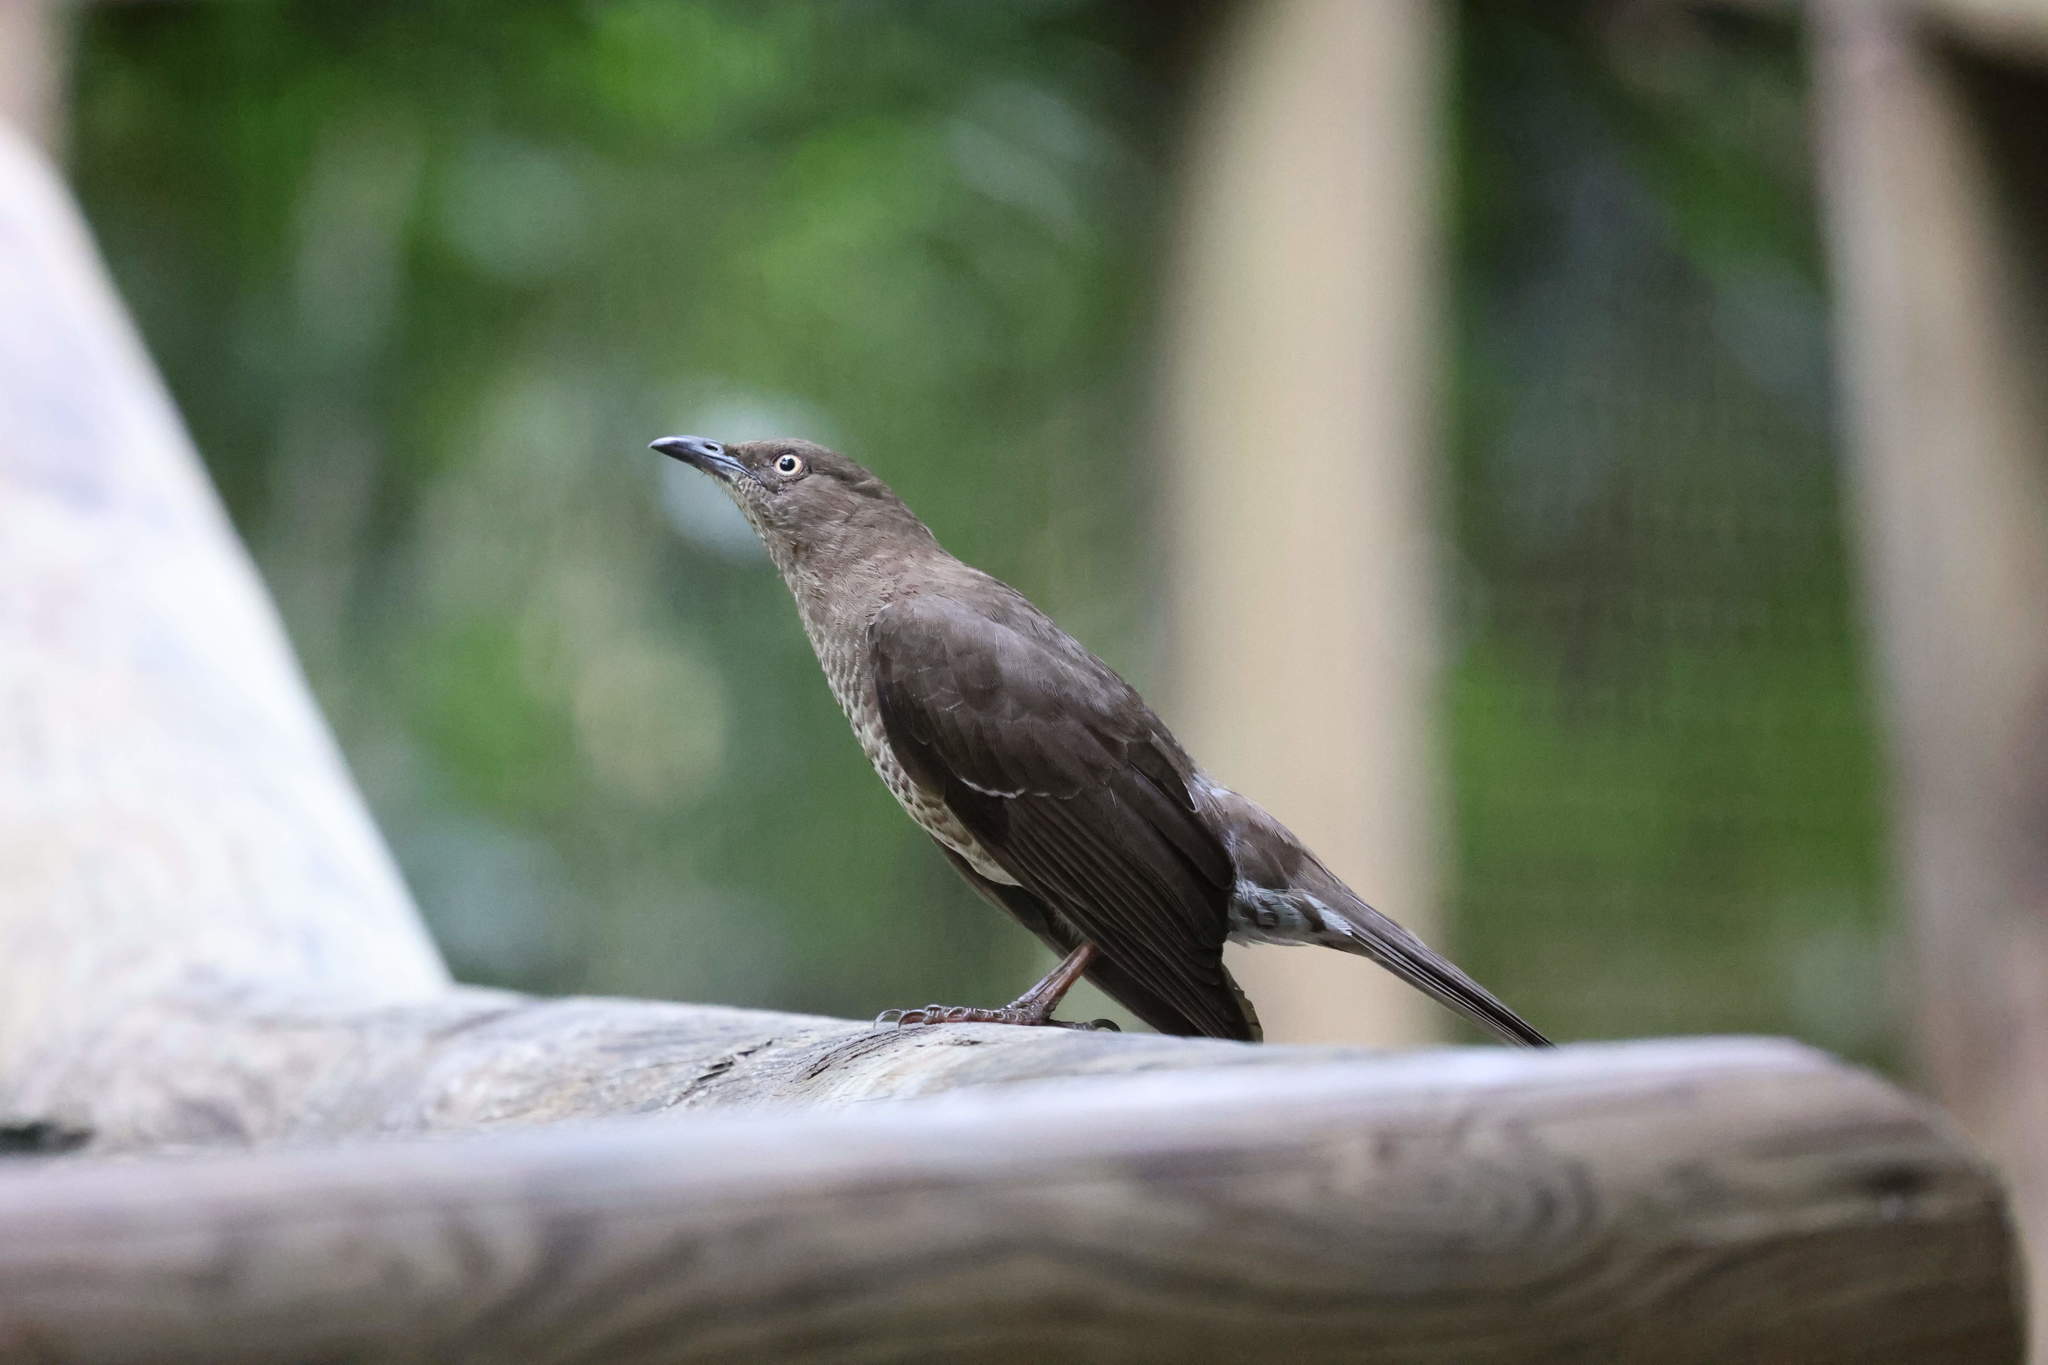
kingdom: Animalia
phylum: Chordata
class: Aves
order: Passeriformes
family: Mimidae
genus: Allenia
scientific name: Allenia fusca
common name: Scaly-breasted thrasher
